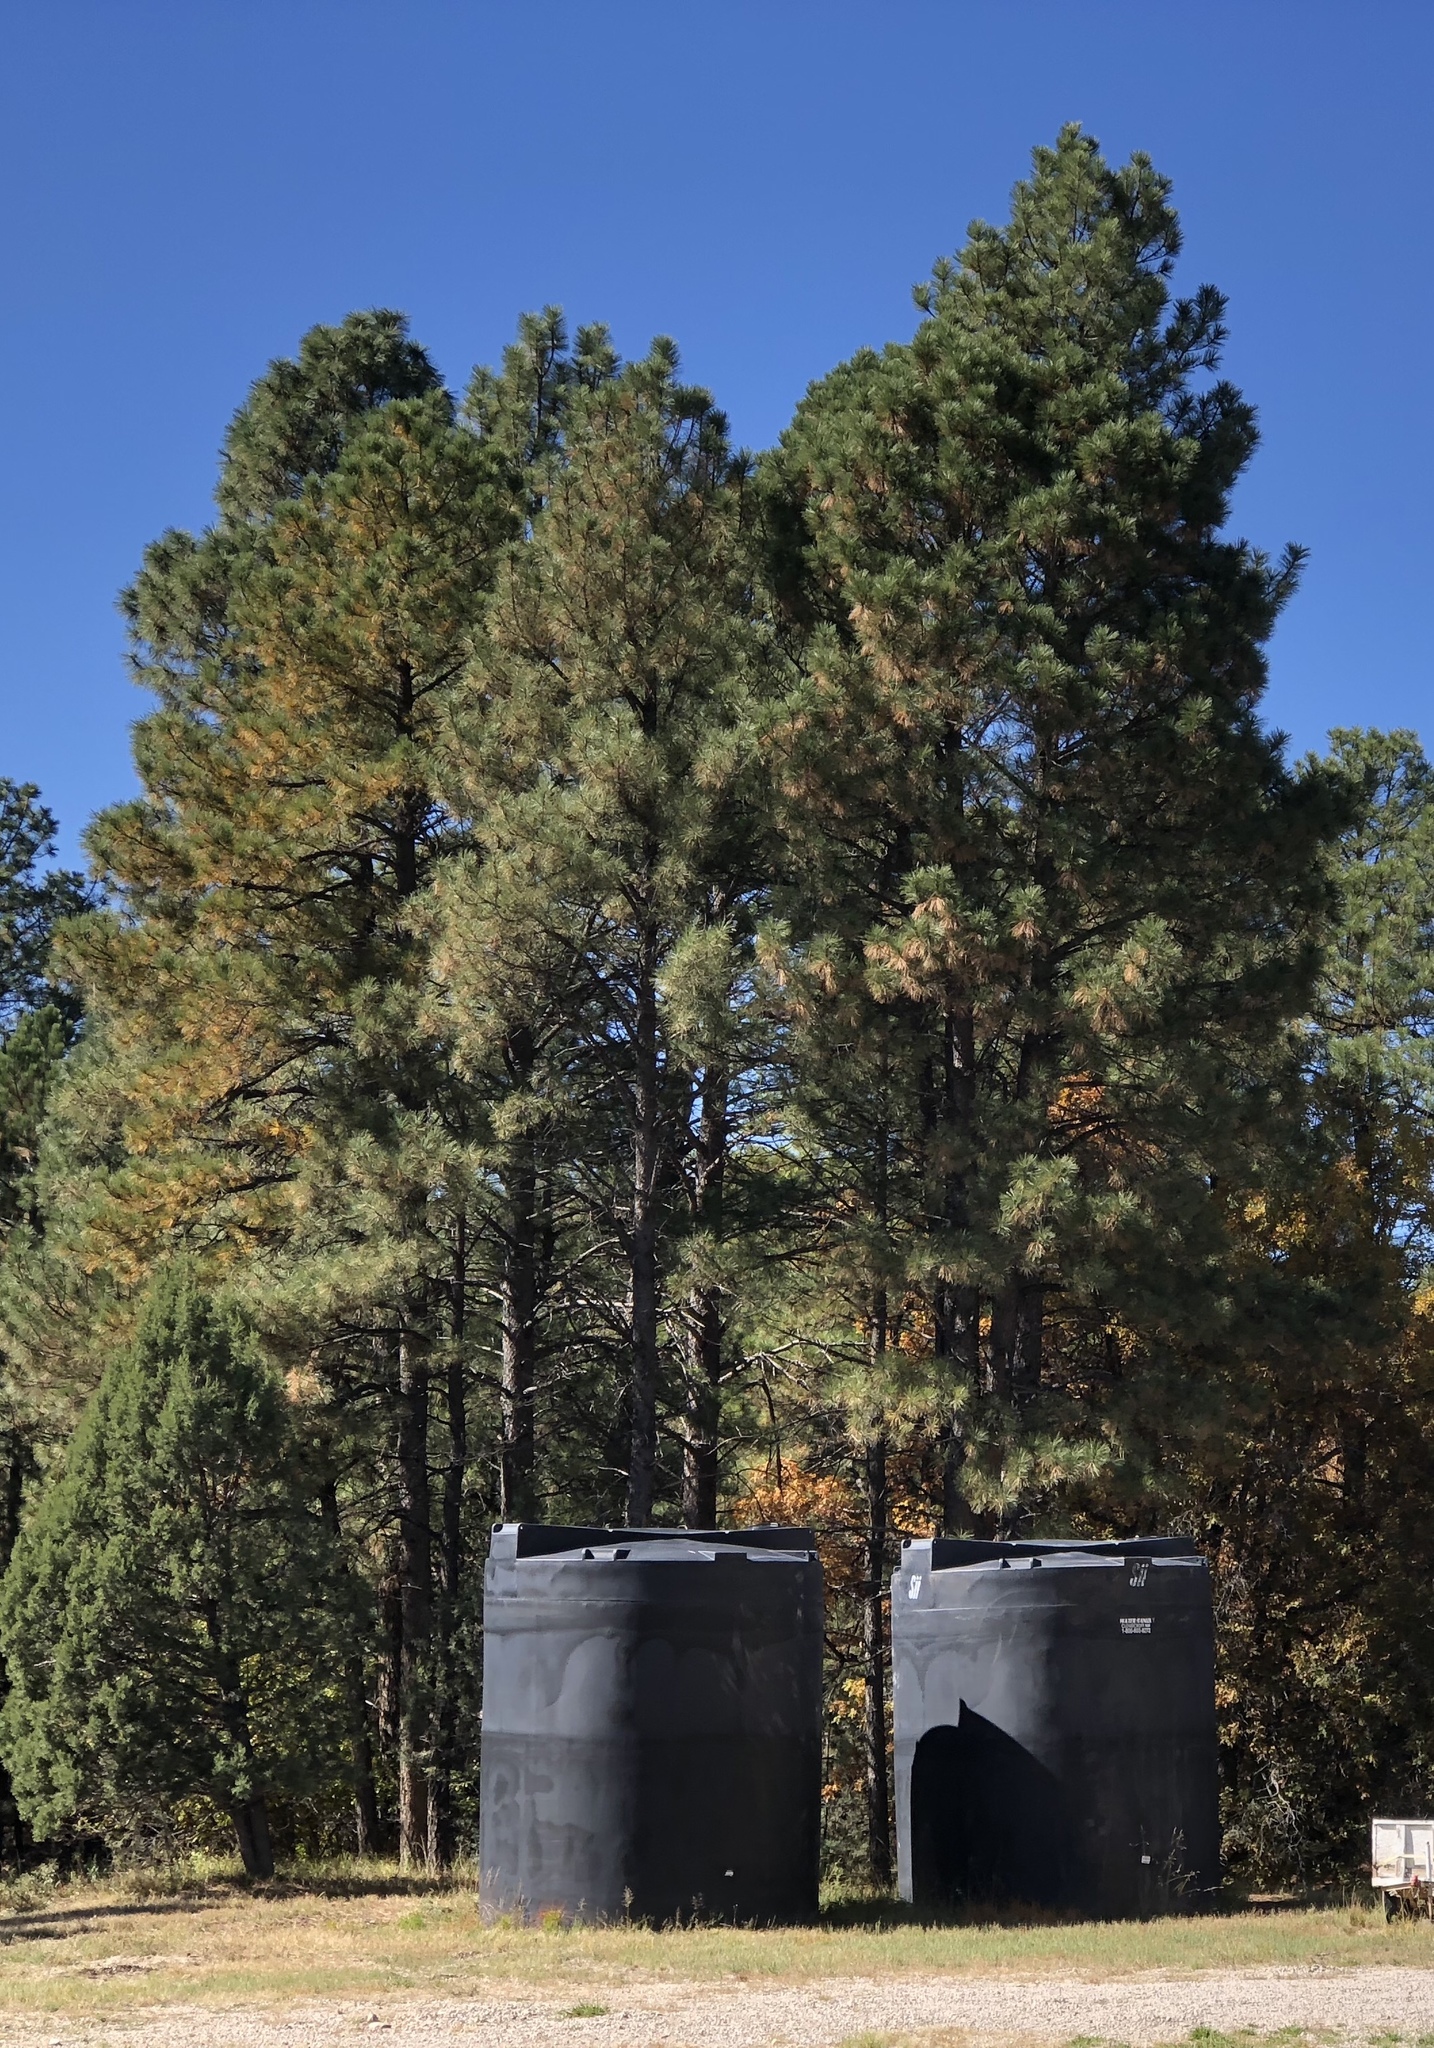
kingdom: Plantae
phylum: Tracheophyta
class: Pinopsida
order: Pinales
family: Pinaceae
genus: Pinus
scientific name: Pinus ponderosa
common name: Western yellow-pine
